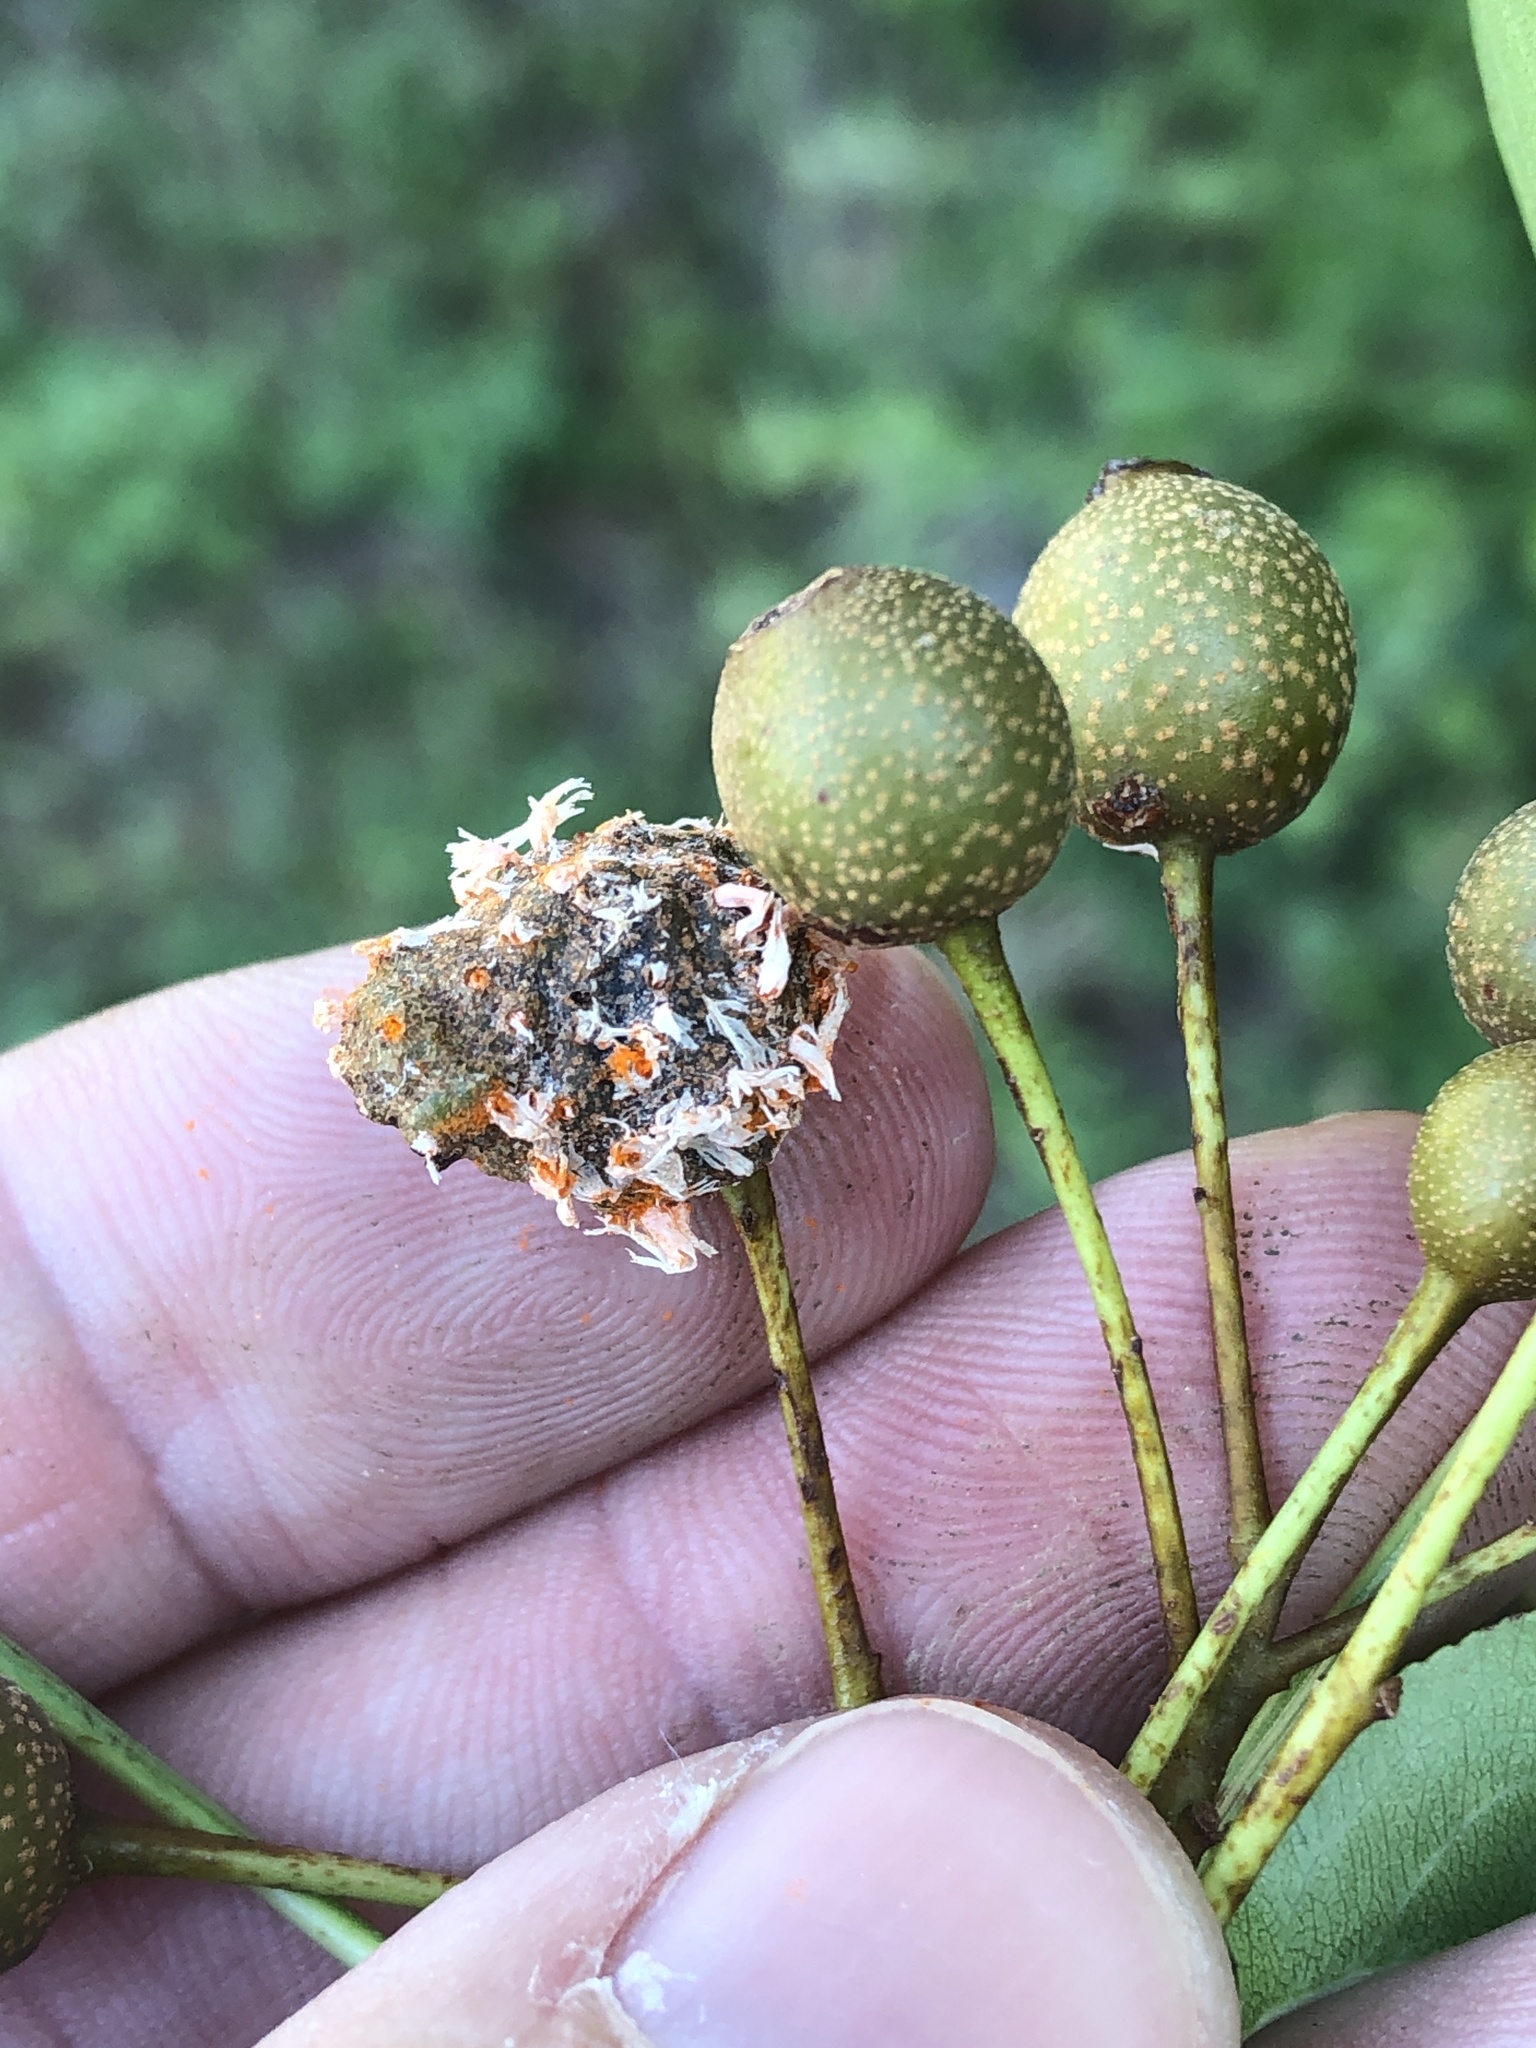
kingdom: Fungi
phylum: Basidiomycota
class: Pucciniomycetes
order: Pucciniales
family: Gymnosporangiaceae
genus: Gymnosporangium
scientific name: Gymnosporangium clavipes
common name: Quince rust
